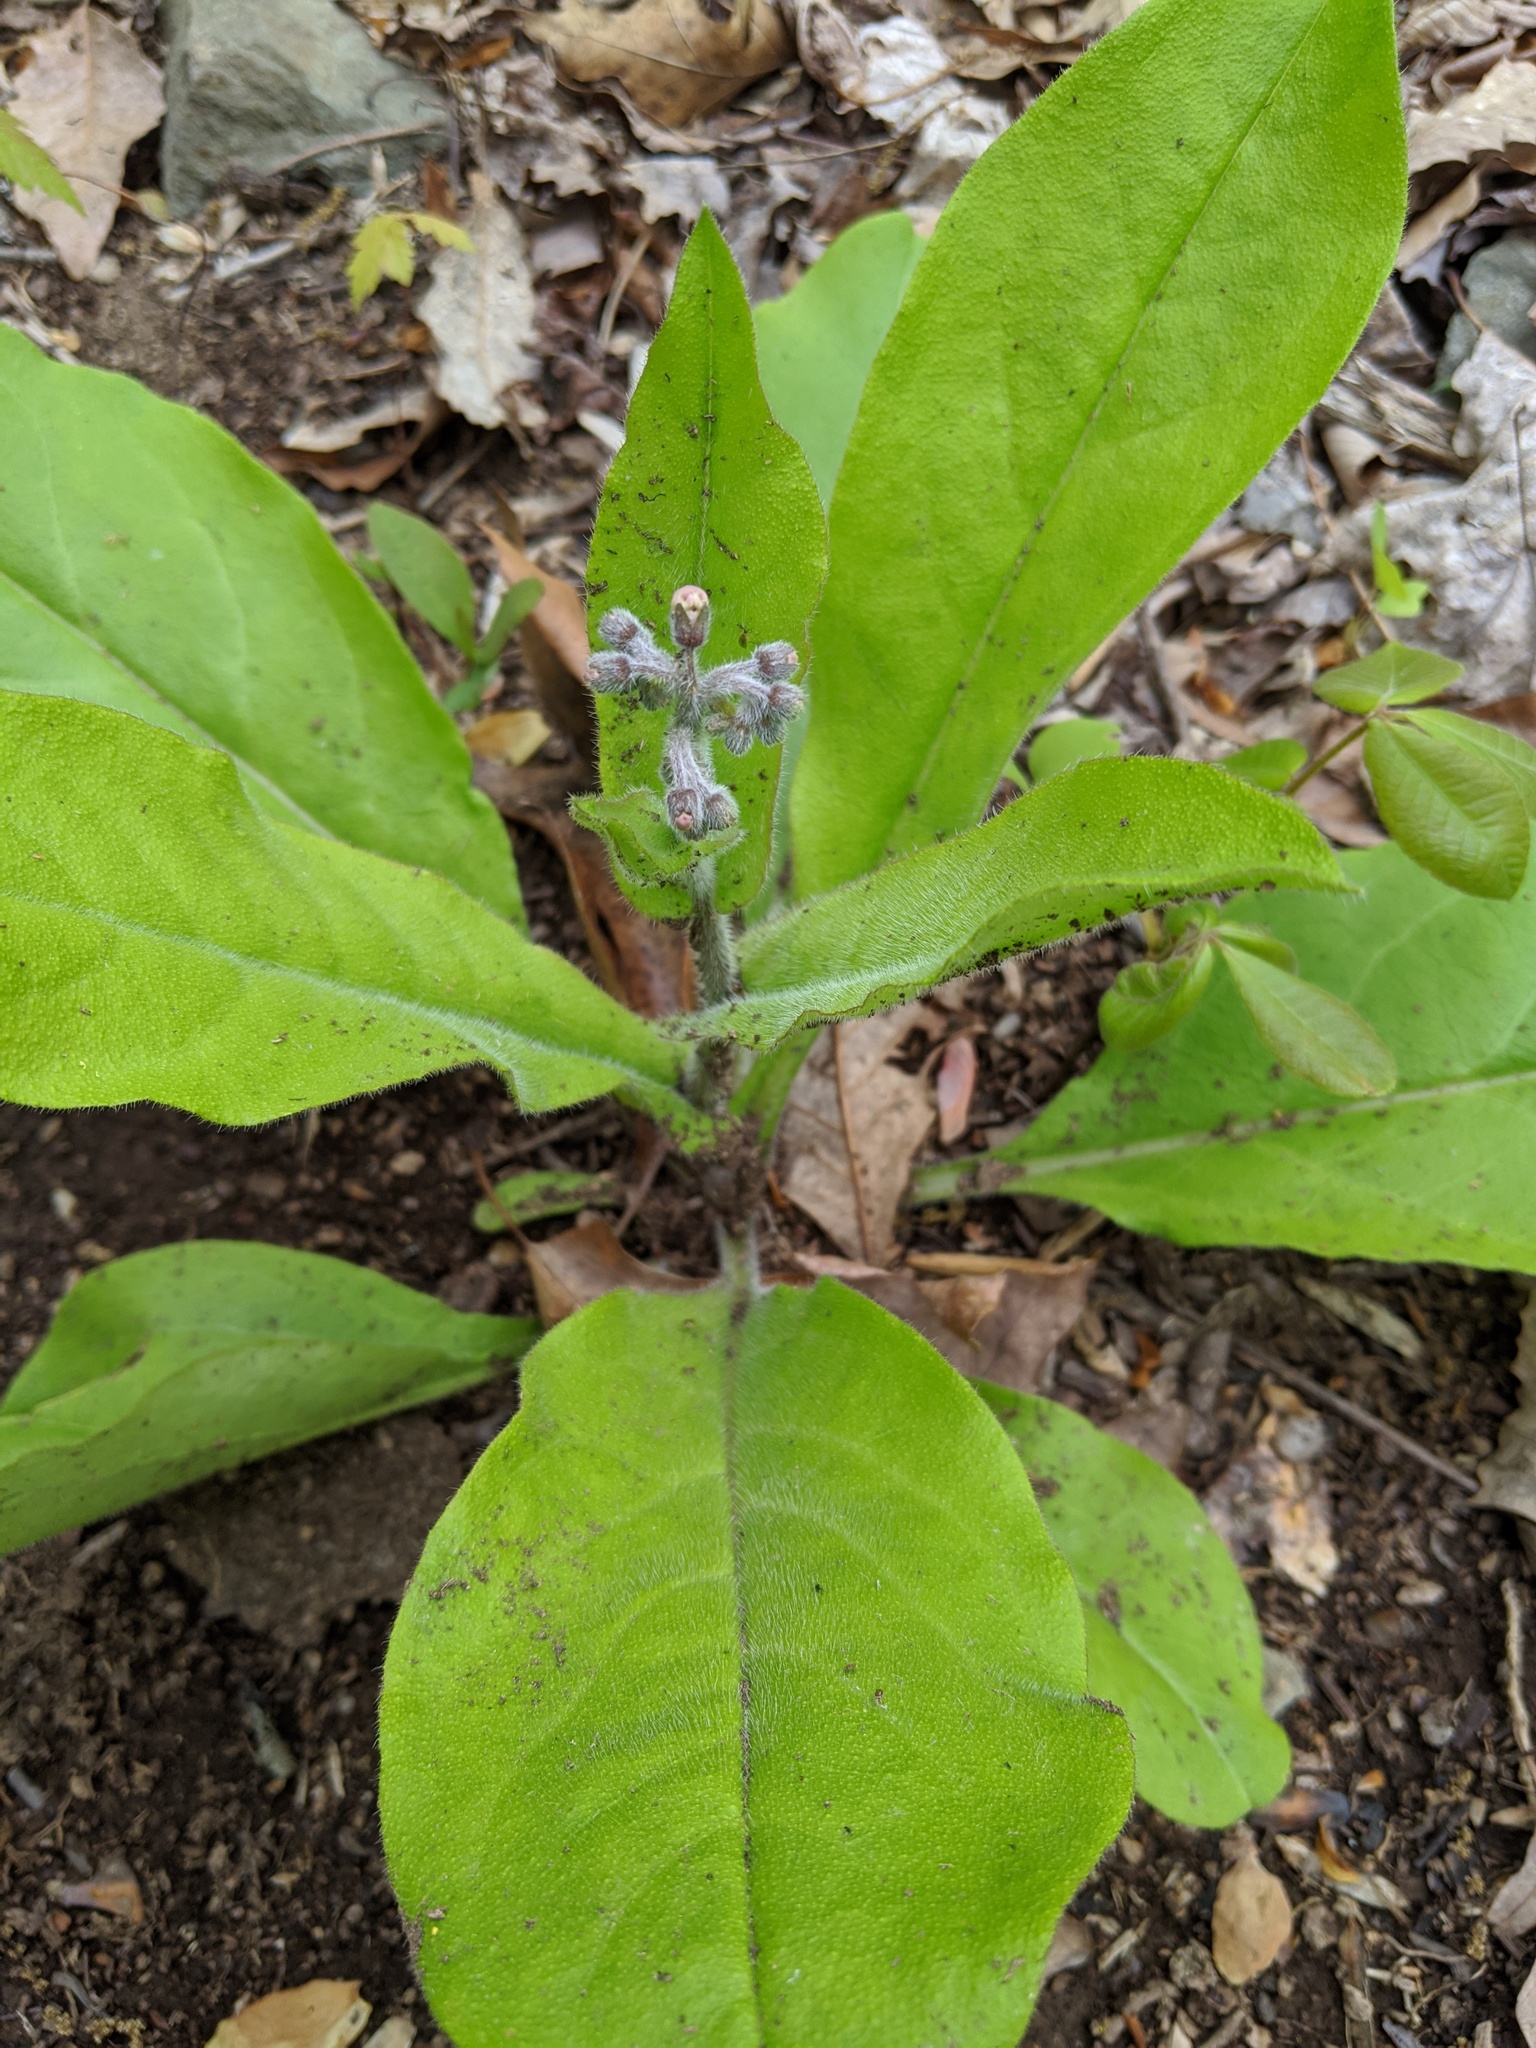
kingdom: Plantae
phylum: Tracheophyta
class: Magnoliopsida
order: Boraginales
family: Boraginaceae
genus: Andersonglossum
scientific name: Andersonglossum virginianum
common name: Wild comfrey
